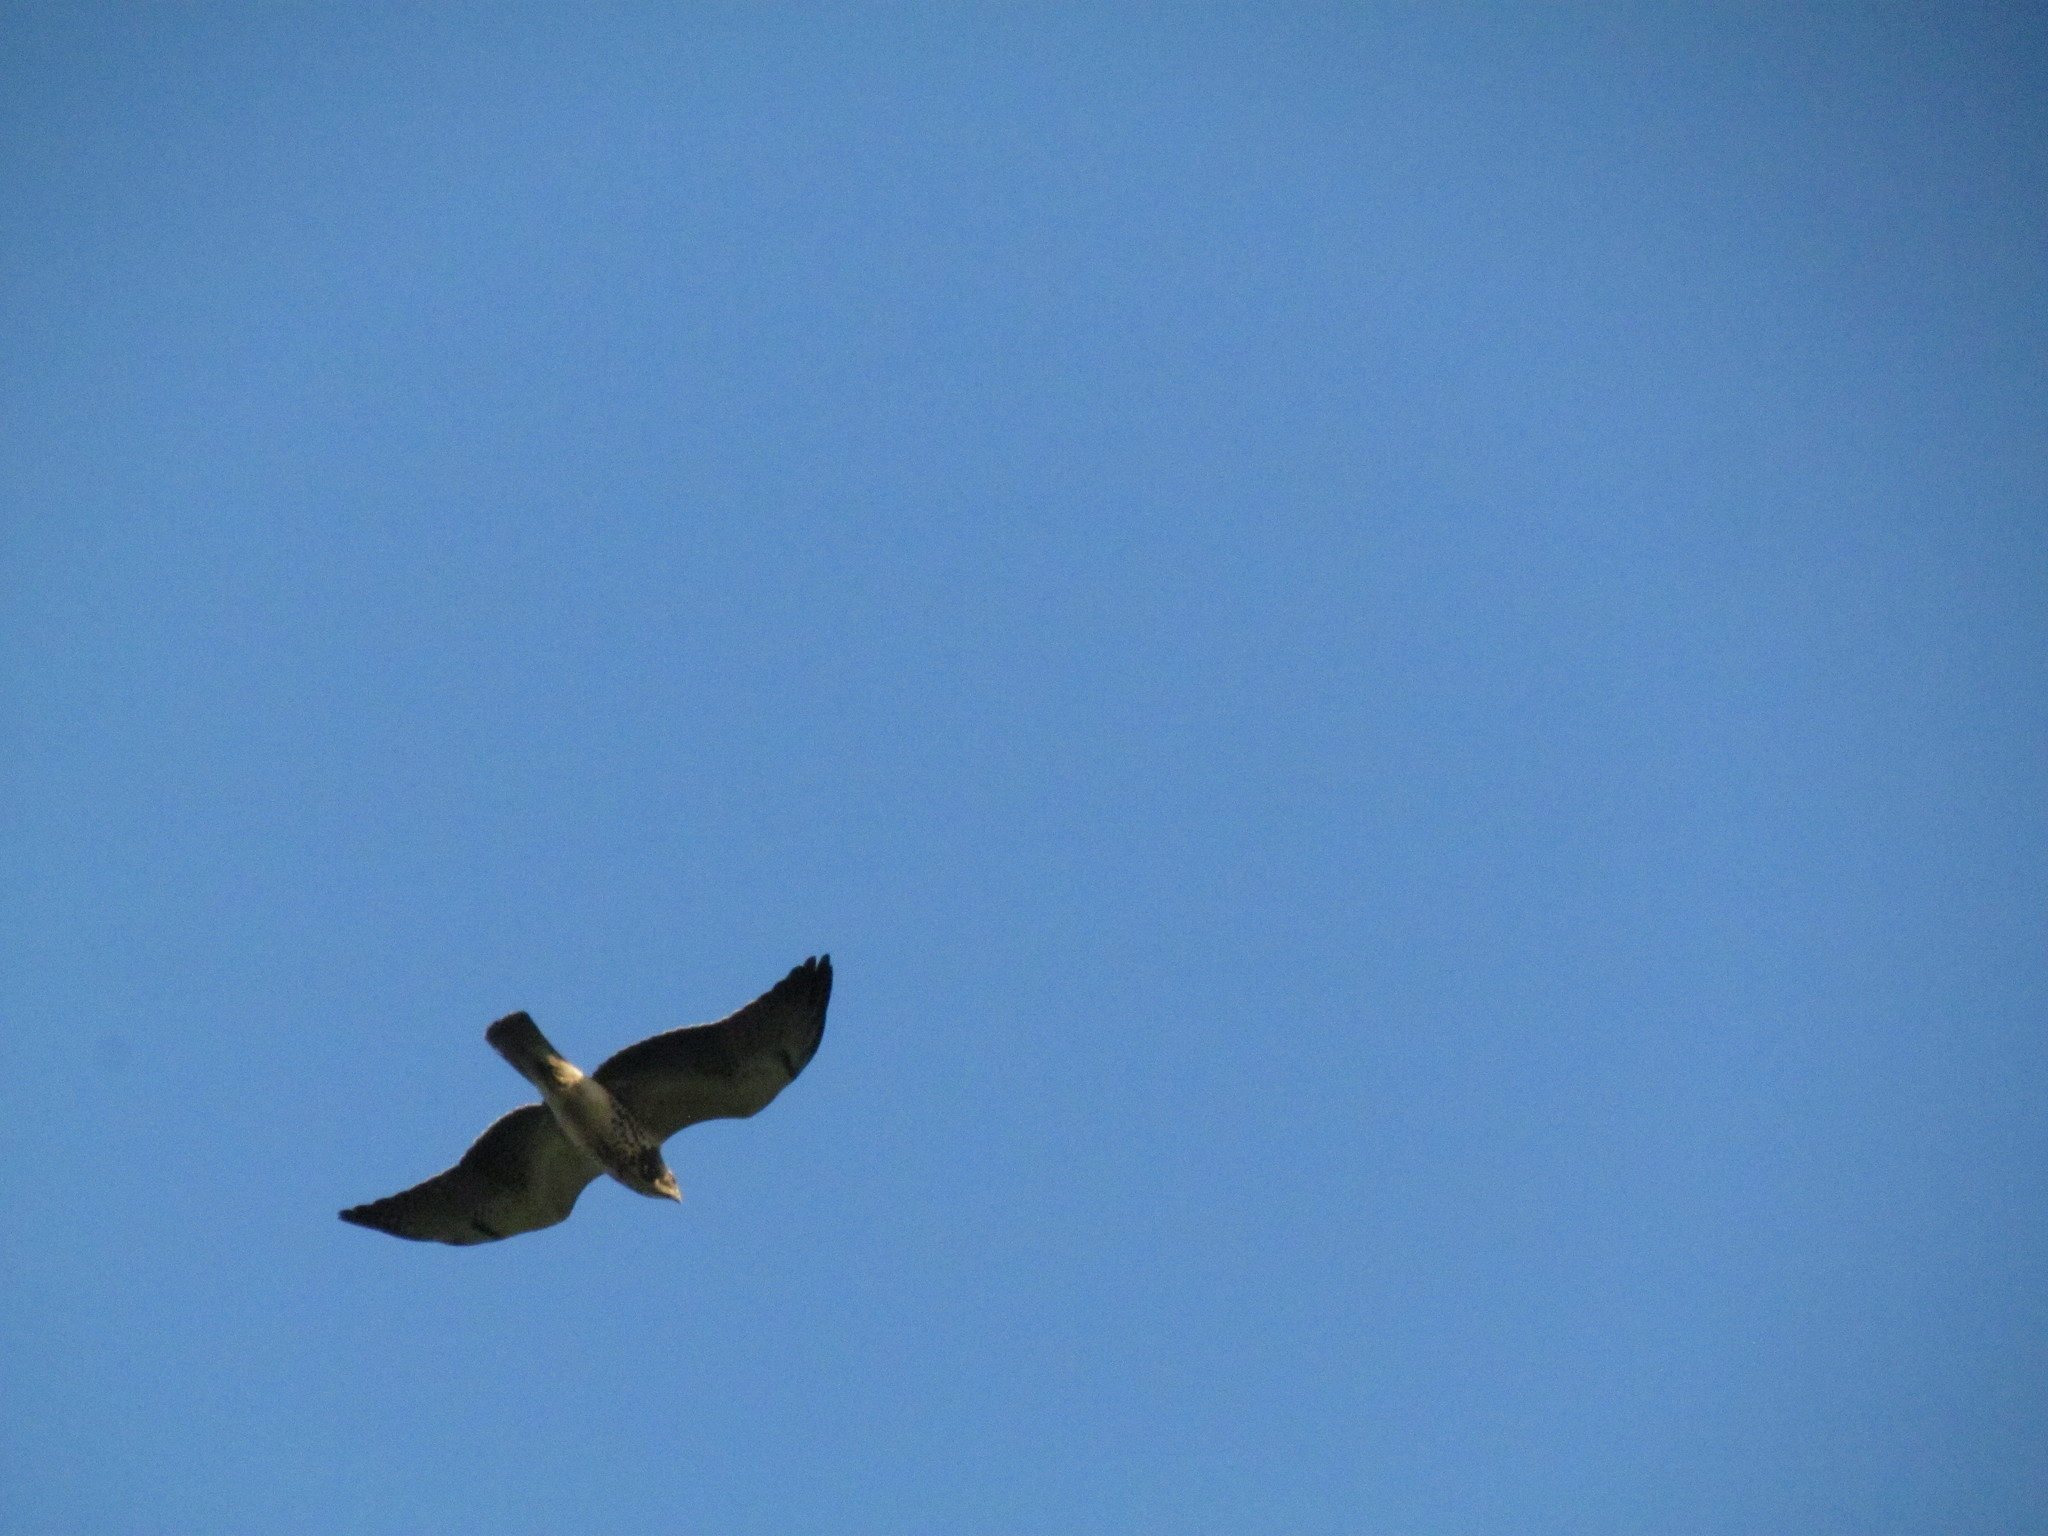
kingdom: Animalia
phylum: Chordata
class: Aves
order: Accipitriformes
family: Accipitridae
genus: Buteo
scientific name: Buteo swainsoni
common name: Swainson's hawk
